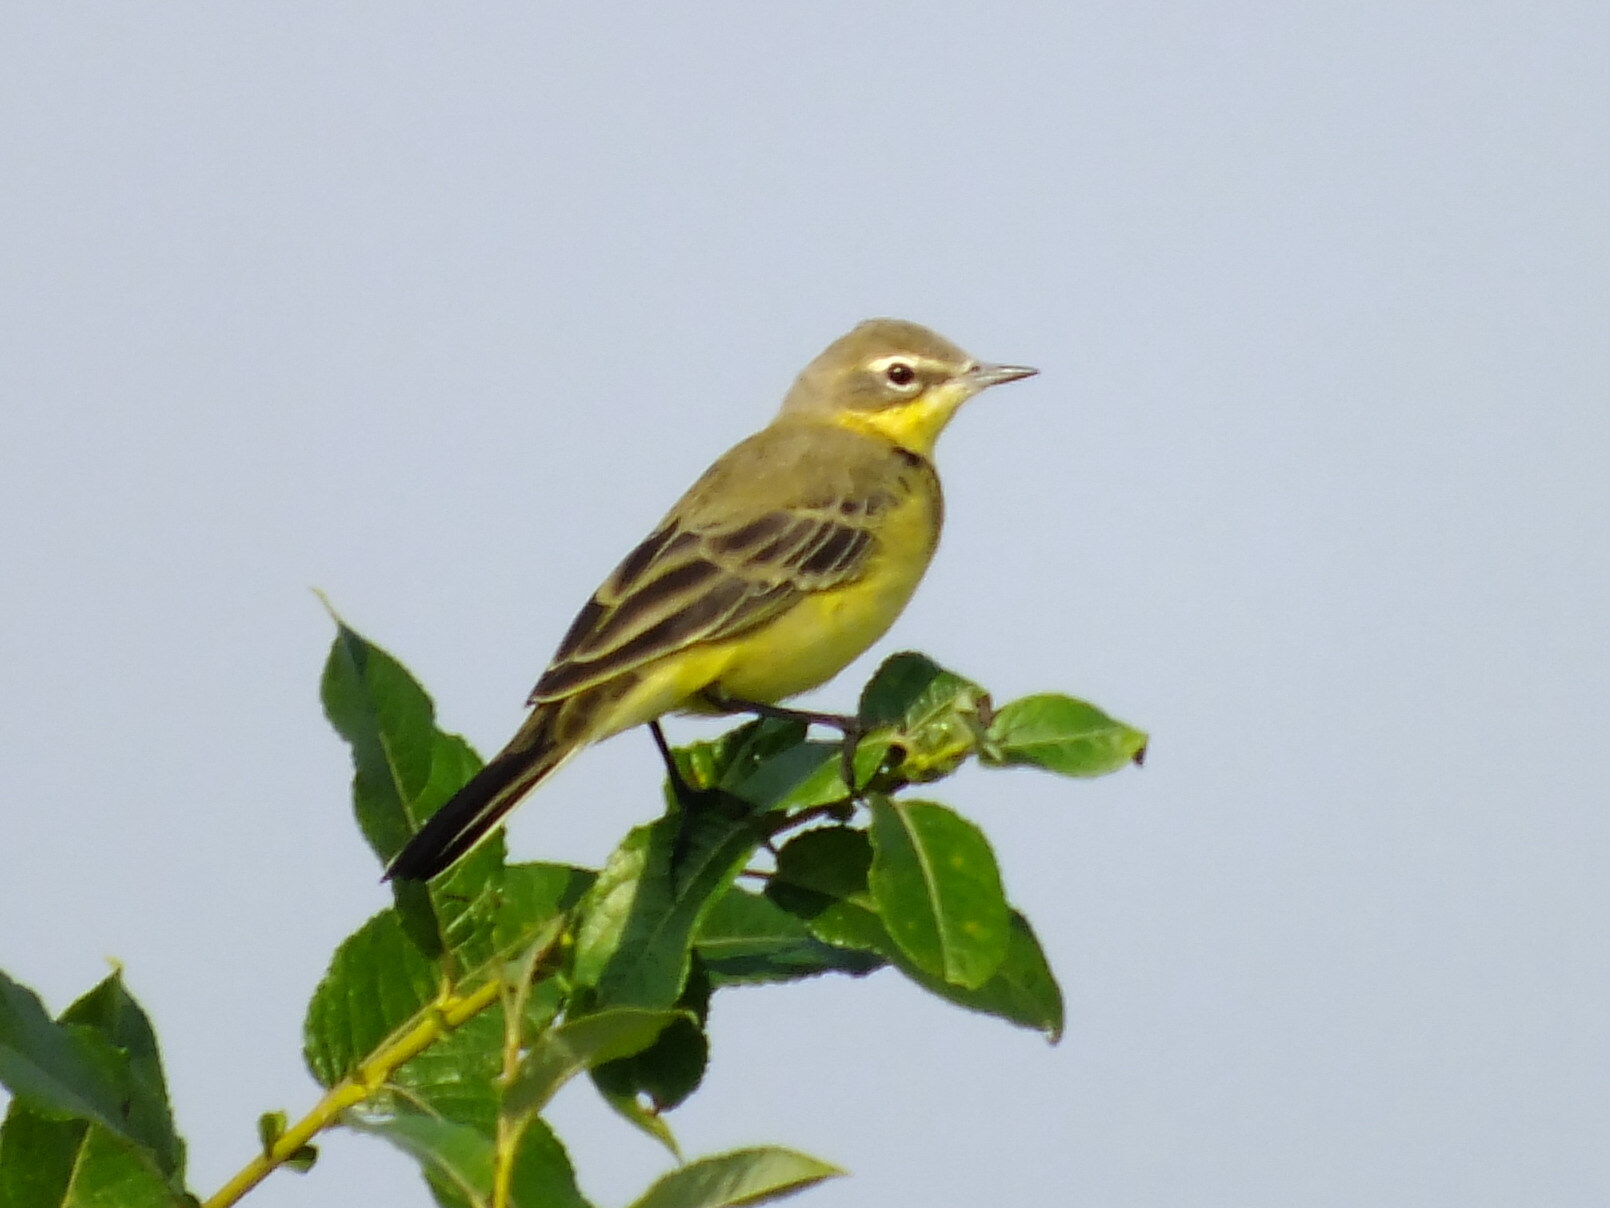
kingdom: Animalia
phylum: Chordata
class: Aves
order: Passeriformes
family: Motacillidae
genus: Motacilla
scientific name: Motacilla flava
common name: Western yellow wagtail
